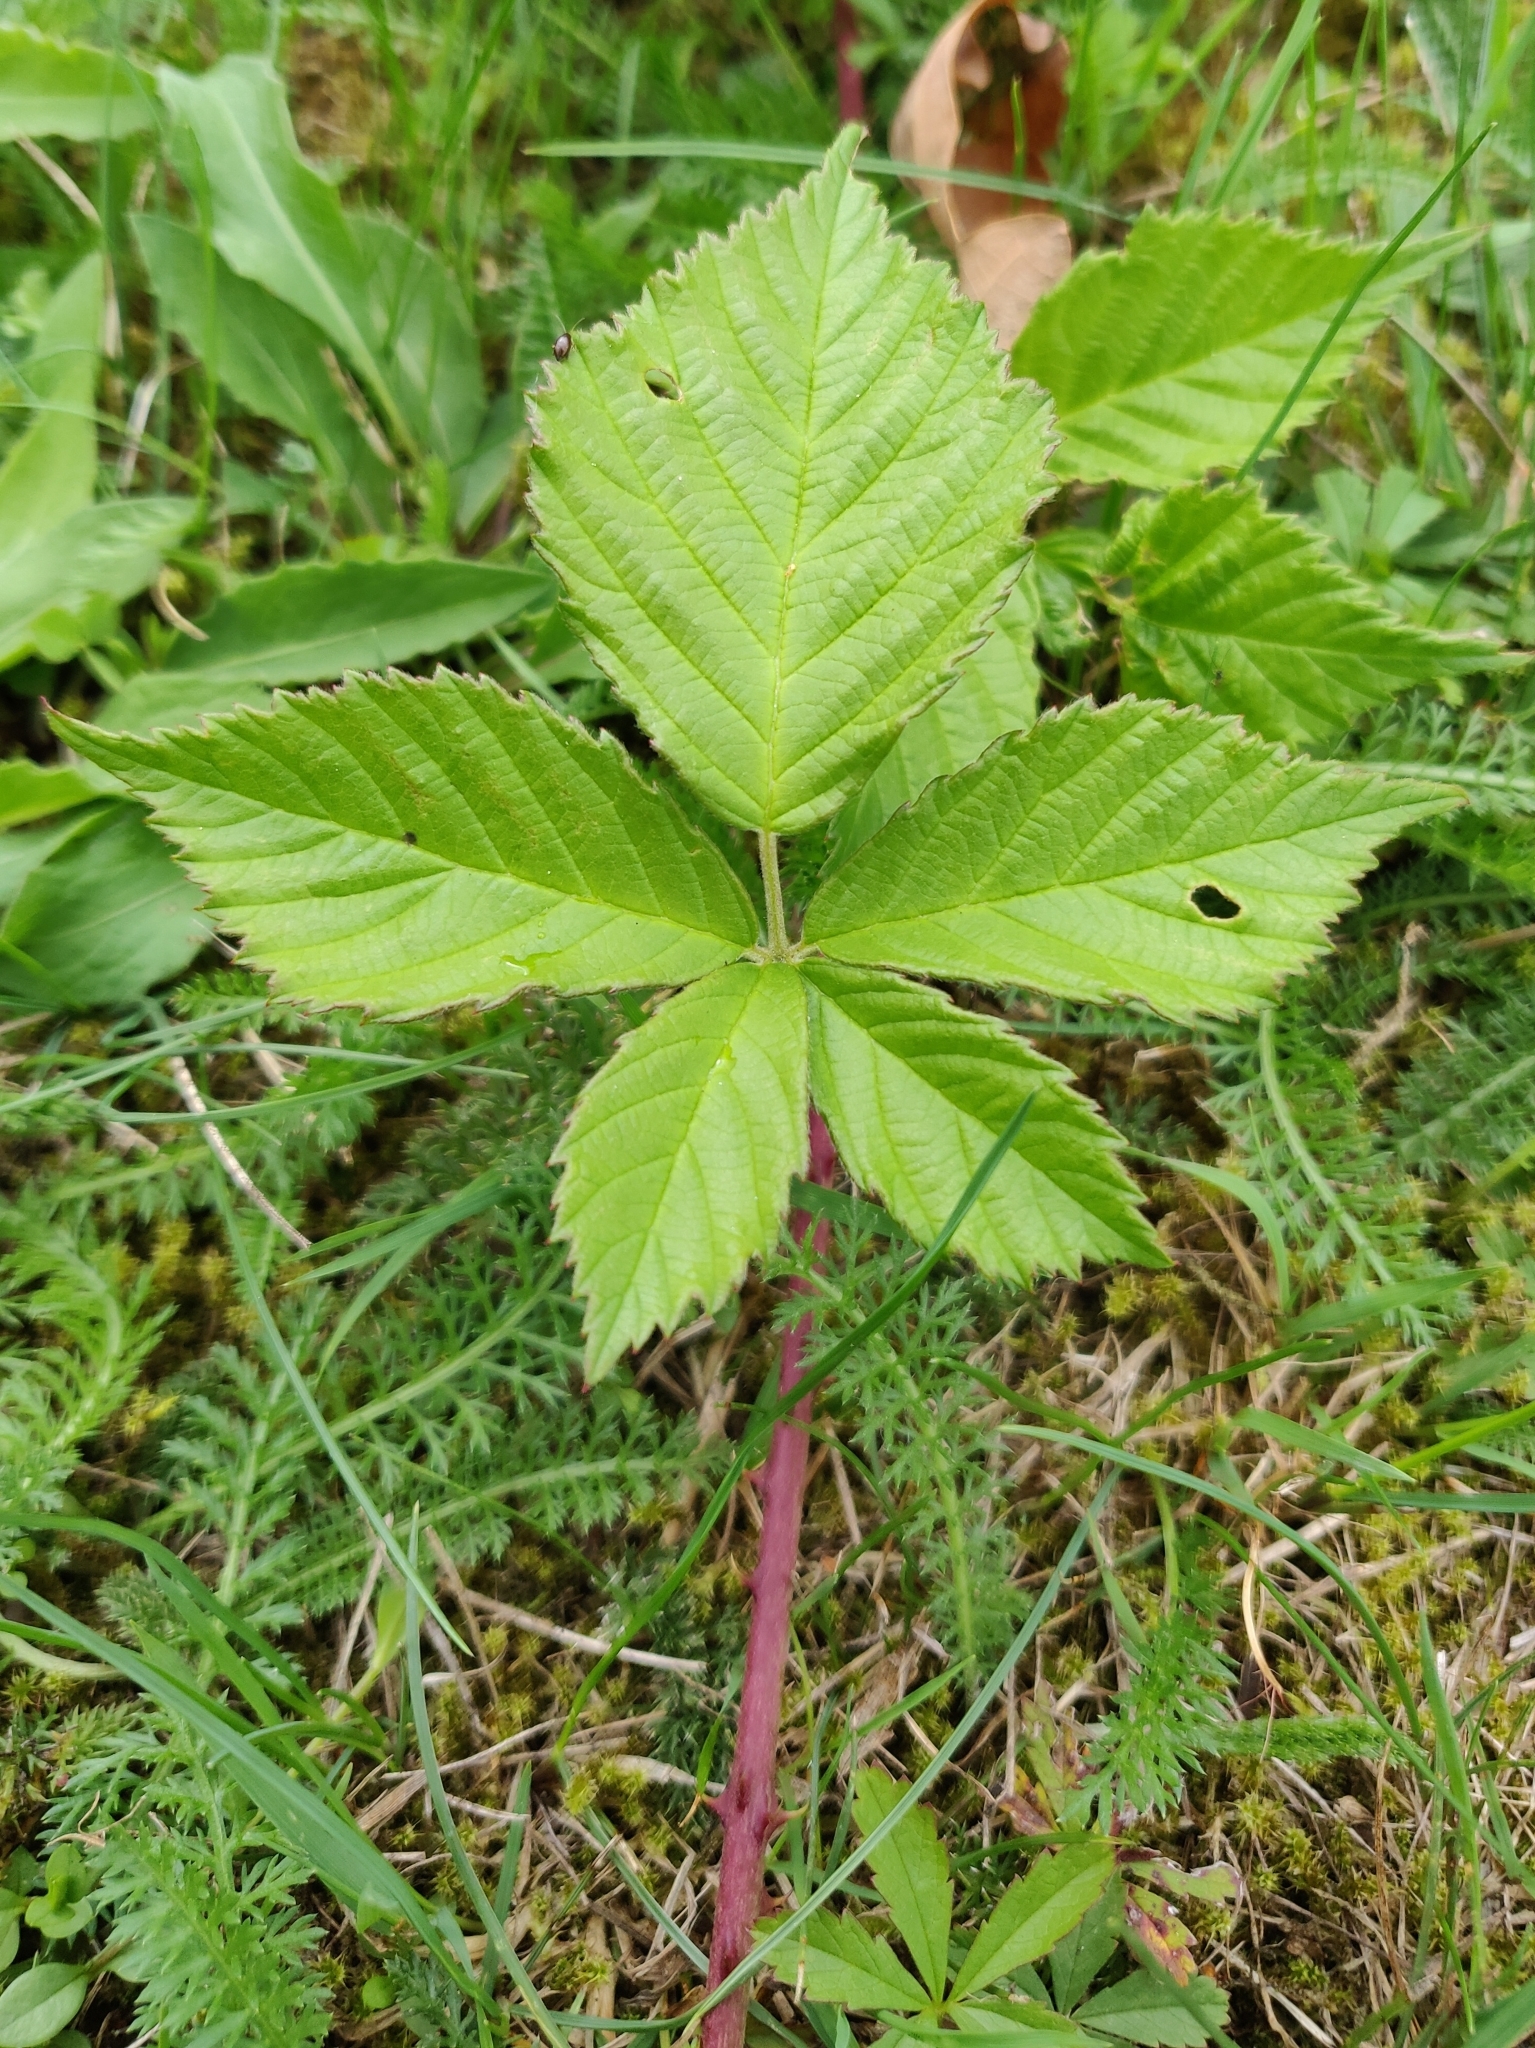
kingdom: Plantae
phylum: Tracheophyta
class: Magnoliopsida
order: Rosales
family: Rosaceae
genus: Rubus
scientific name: Rubus saxatilis
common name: Stone bramble
